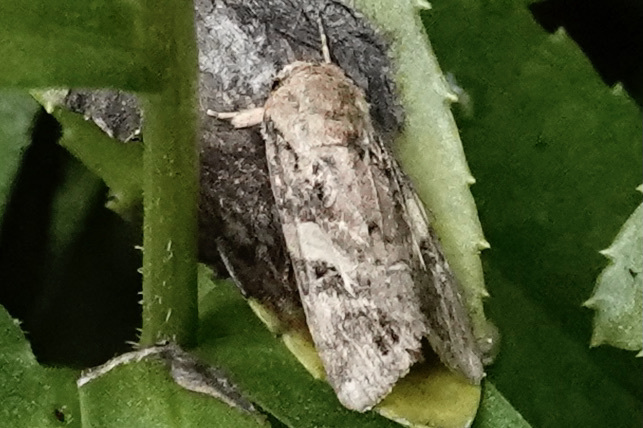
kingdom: Animalia
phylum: Arthropoda
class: Insecta
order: Lepidoptera
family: Noctuidae
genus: Spodoptera
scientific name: Spodoptera frugiperda
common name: Fall armyworm
